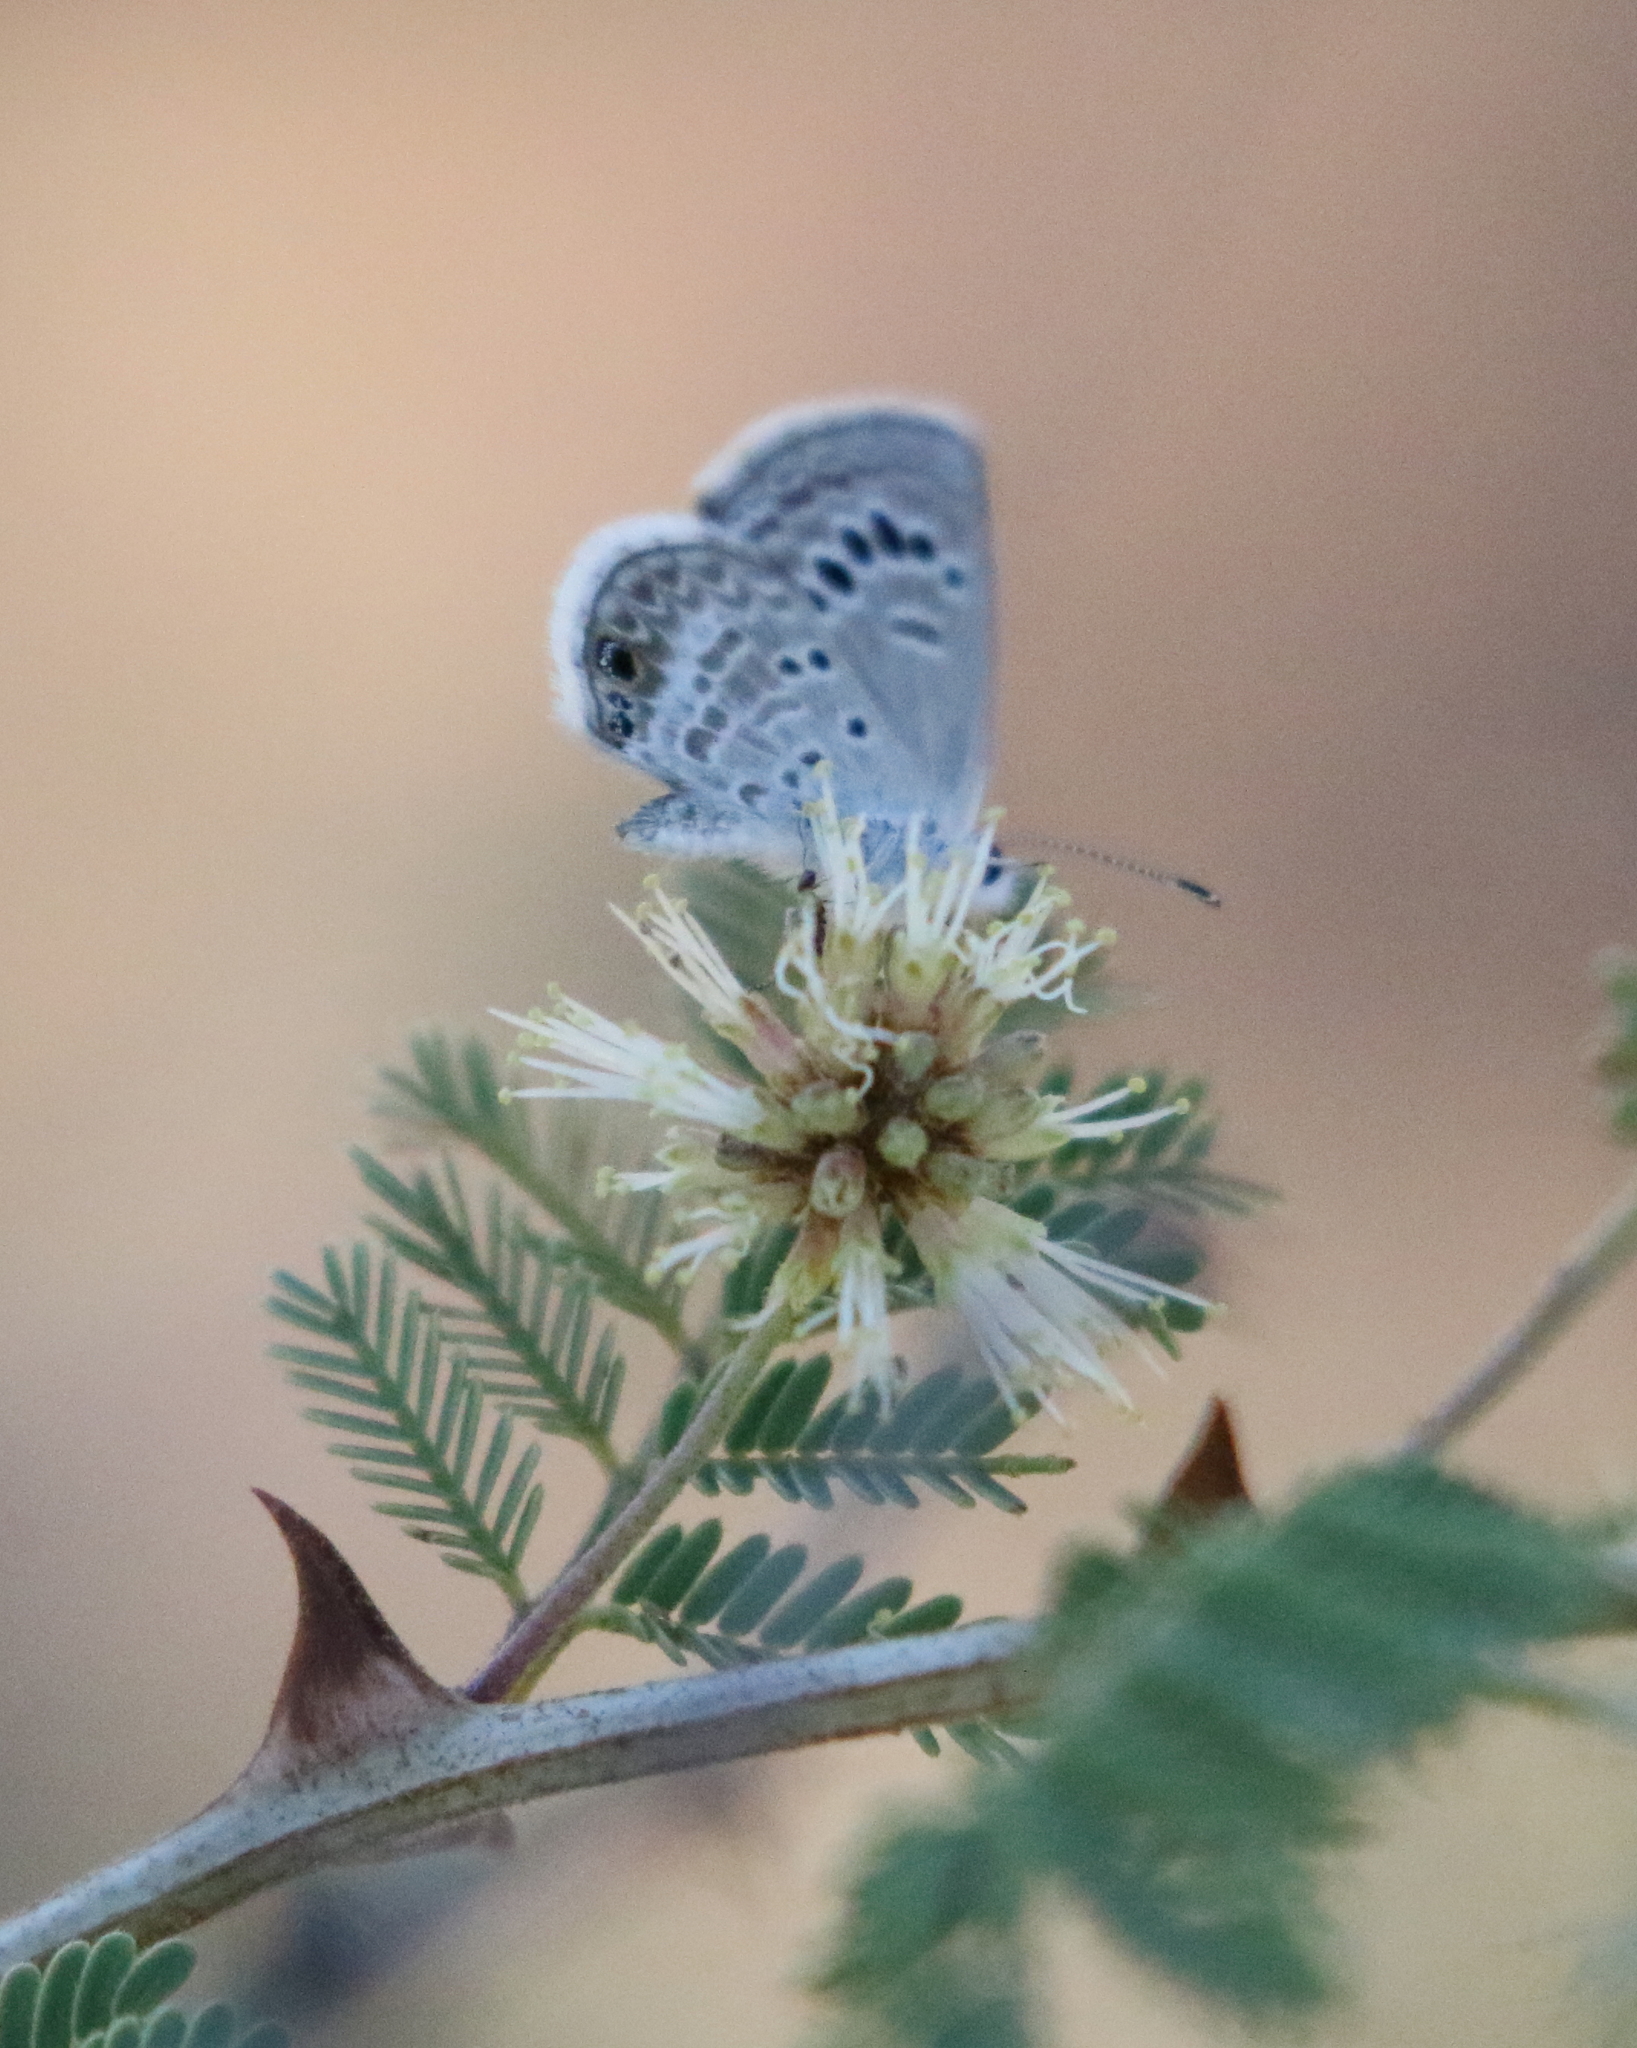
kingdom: Animalia
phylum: Arthropoda
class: Insecta
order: Lepidoptera
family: Lycaenidae
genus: Echinargus
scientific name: Echinargus isola
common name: Reakirt's blue
